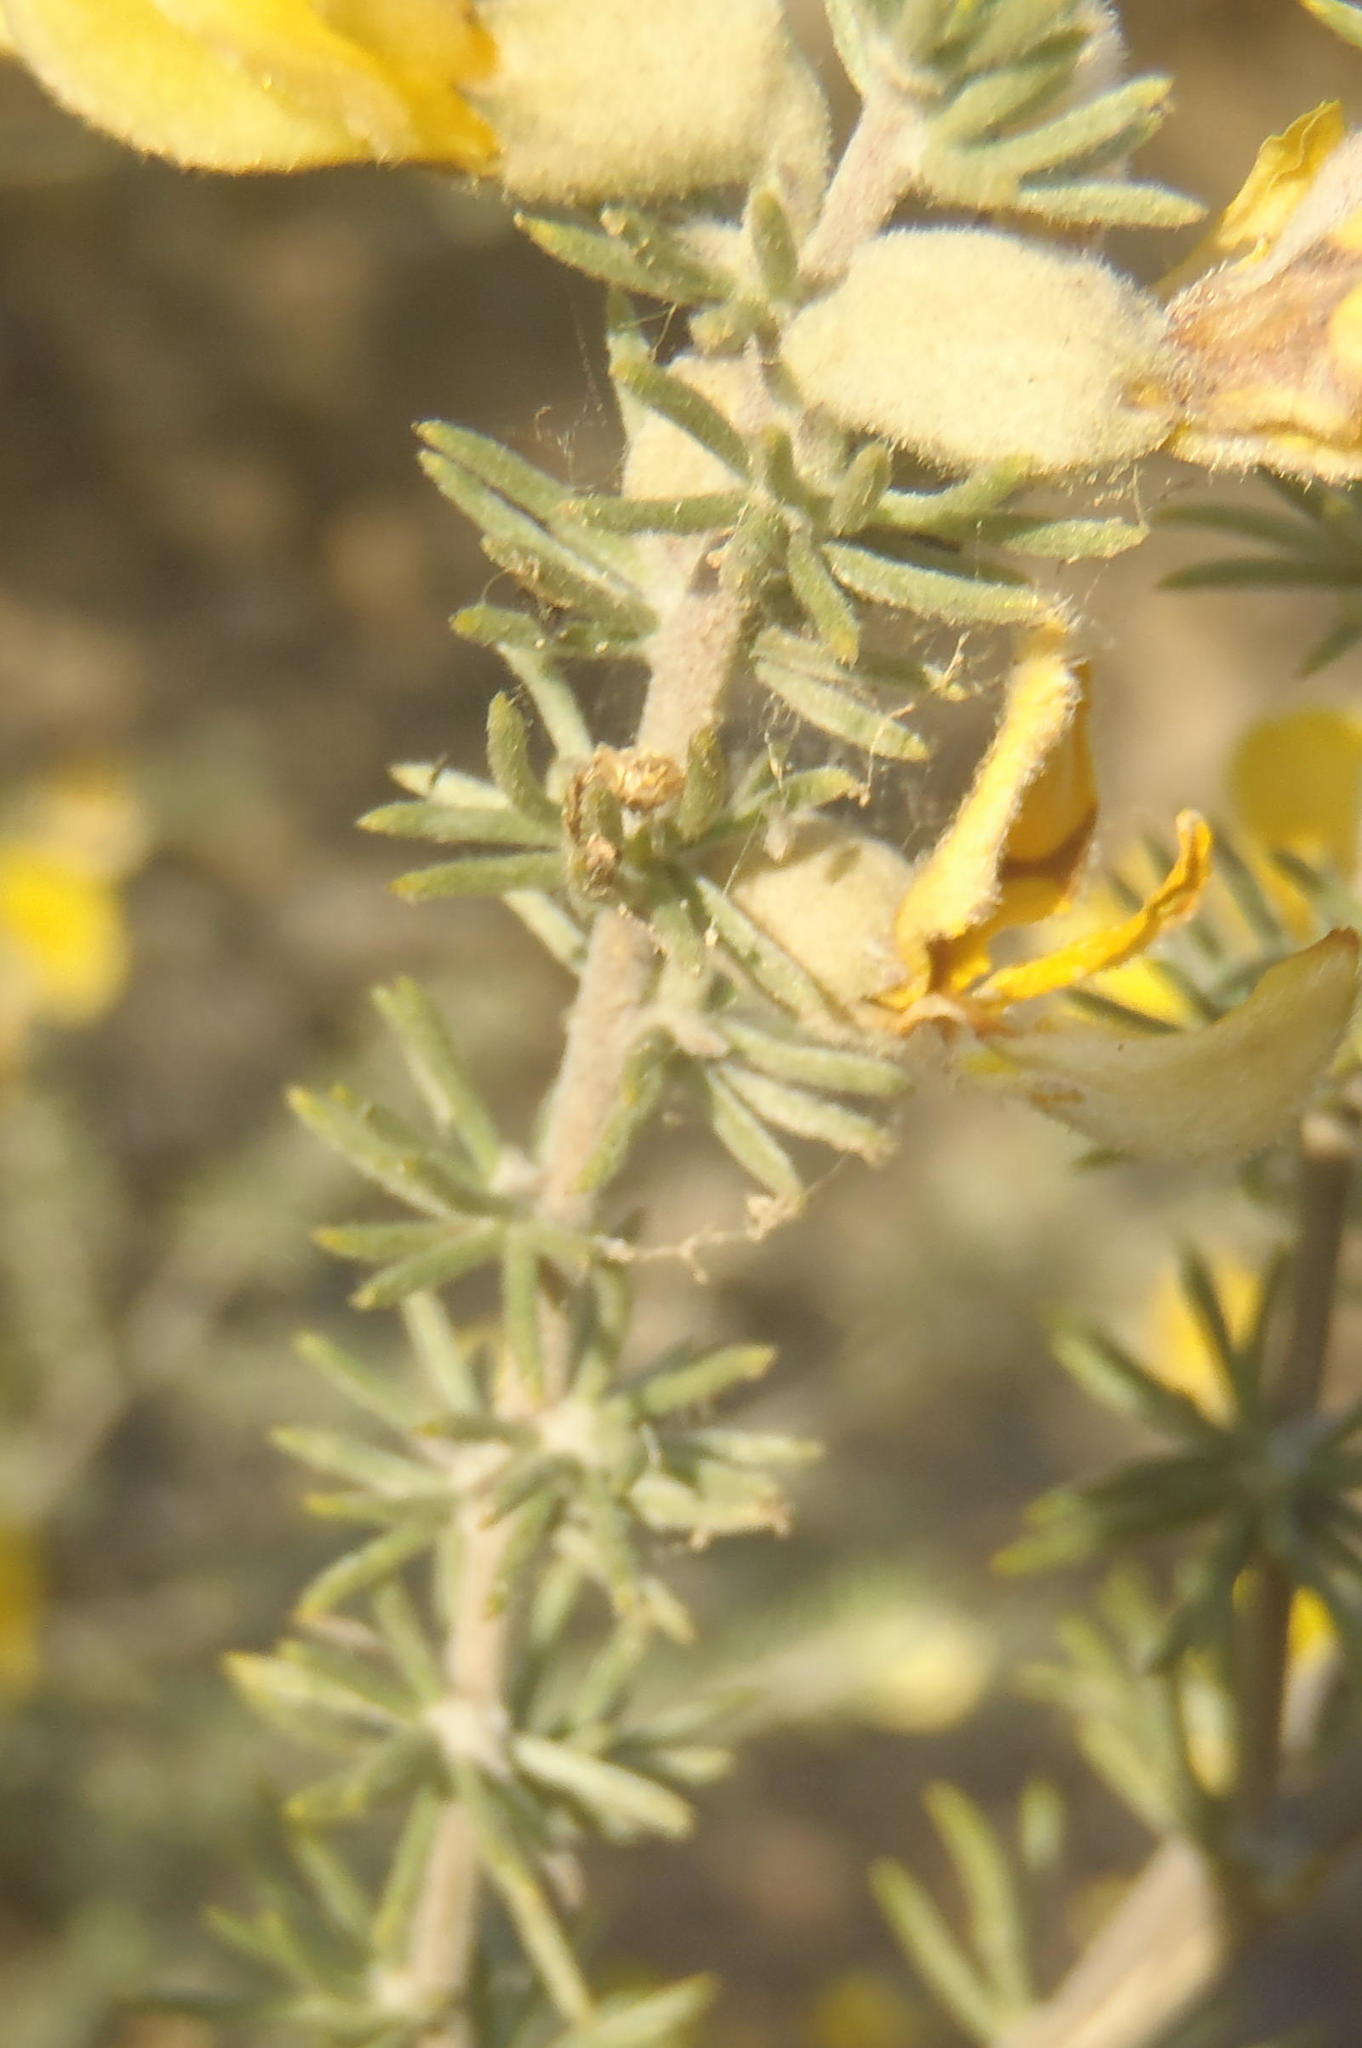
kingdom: Plantae
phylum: Tracheophyta
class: Magnoliopsida
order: Fabales
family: Fabaceae
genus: Aspalathus
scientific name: Aspalathus kougaensis
